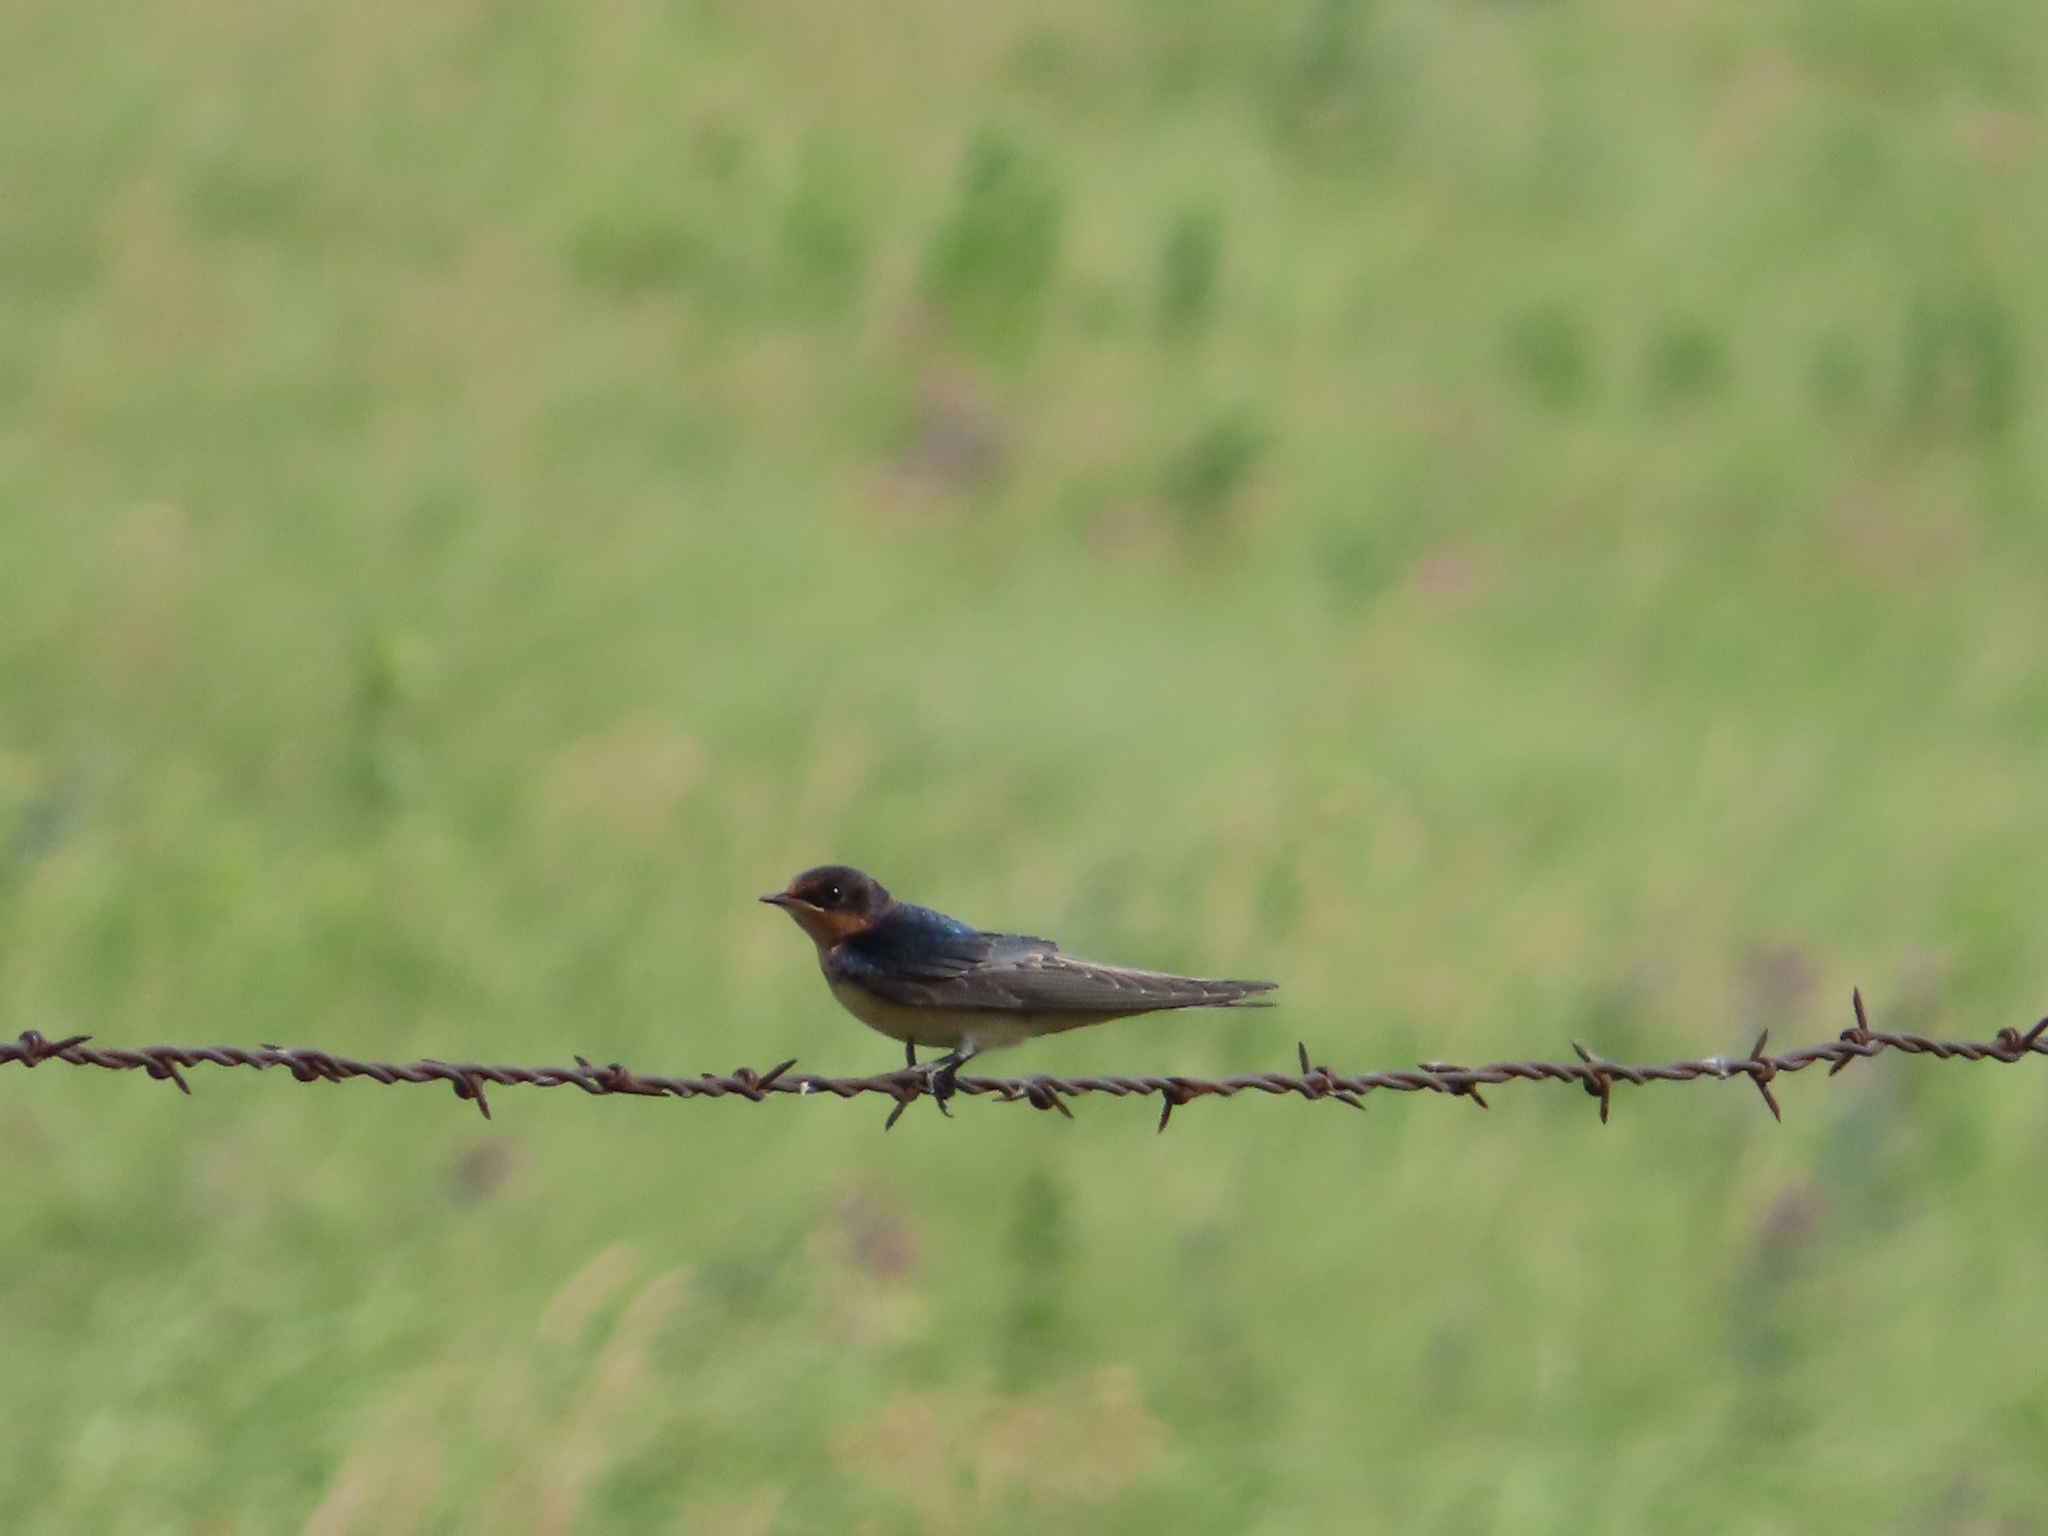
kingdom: Animalia
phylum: Chordata
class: Aves
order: Passeriformes
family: Hirundinidae
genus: Hirundo
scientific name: Hirundo rustica
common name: Barn swallow
